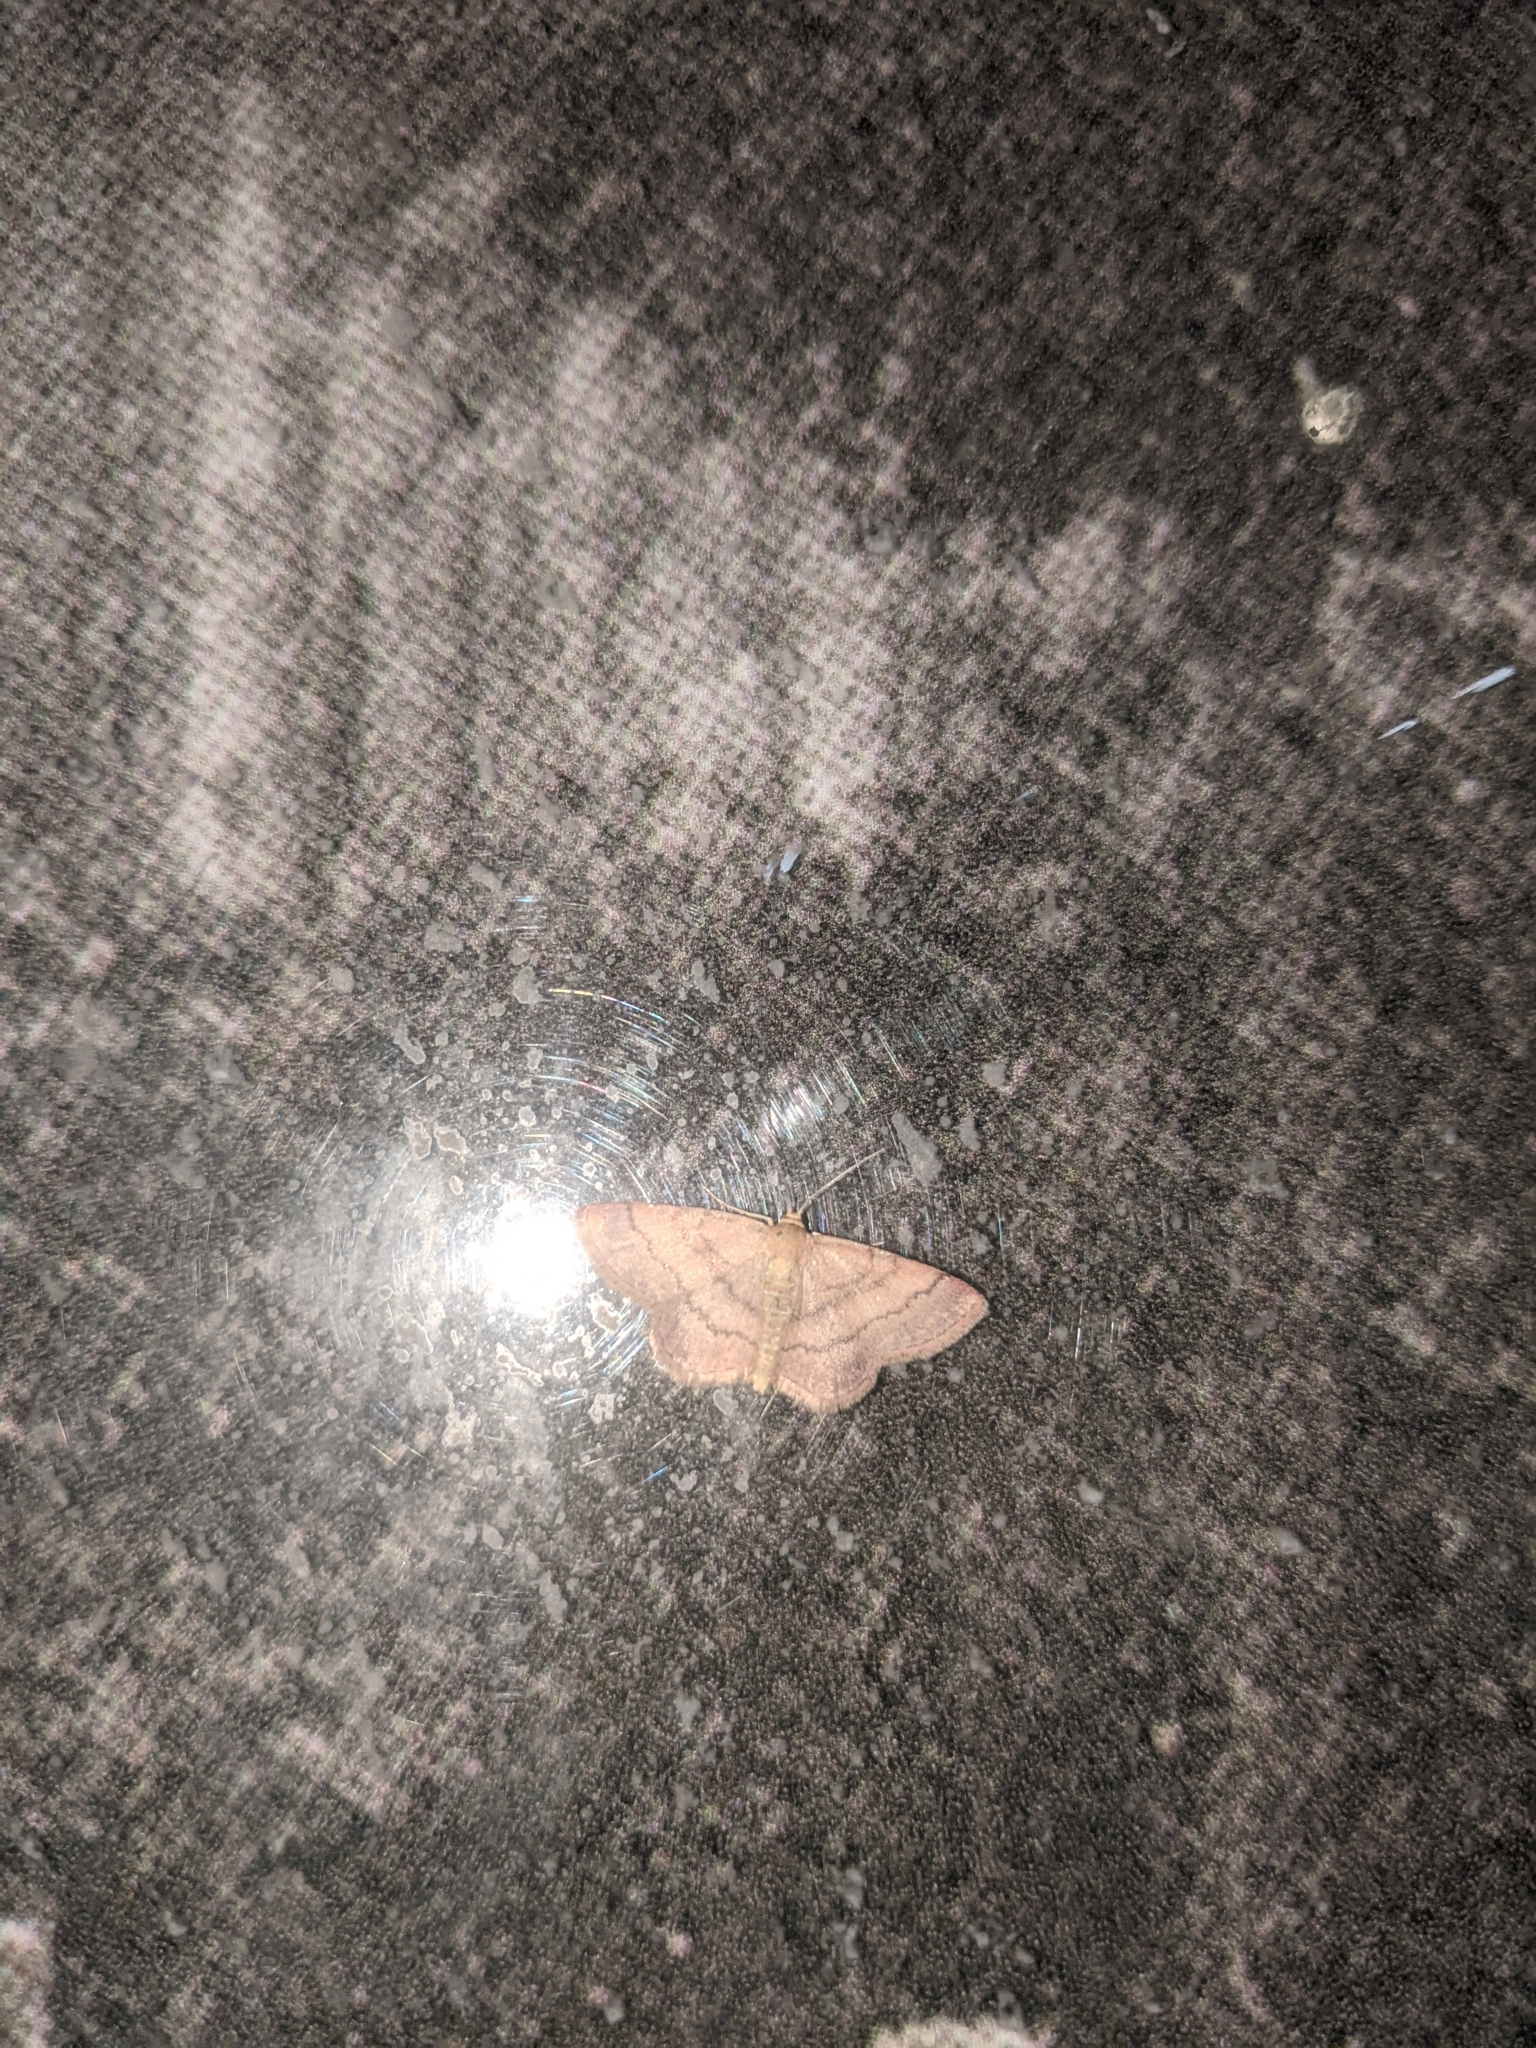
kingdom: Animalia
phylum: Arthropoda
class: Insecta
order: Lepidoptera
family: Geometridae
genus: Scopula
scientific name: Scopula rubiginata
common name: Tawny wave
